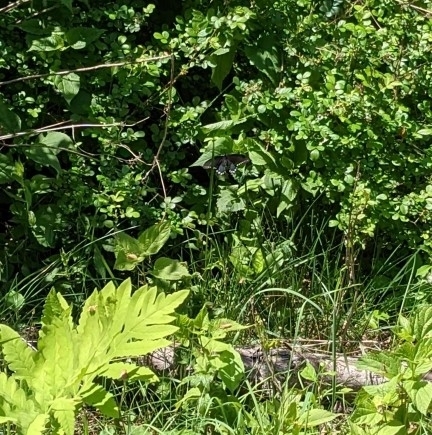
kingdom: Animalia
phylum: Arthropoda
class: Insecta
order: Lepidoptera
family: Papilionidae
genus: Papilio
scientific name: Papilio troilus
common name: Spicebush swallowtail
